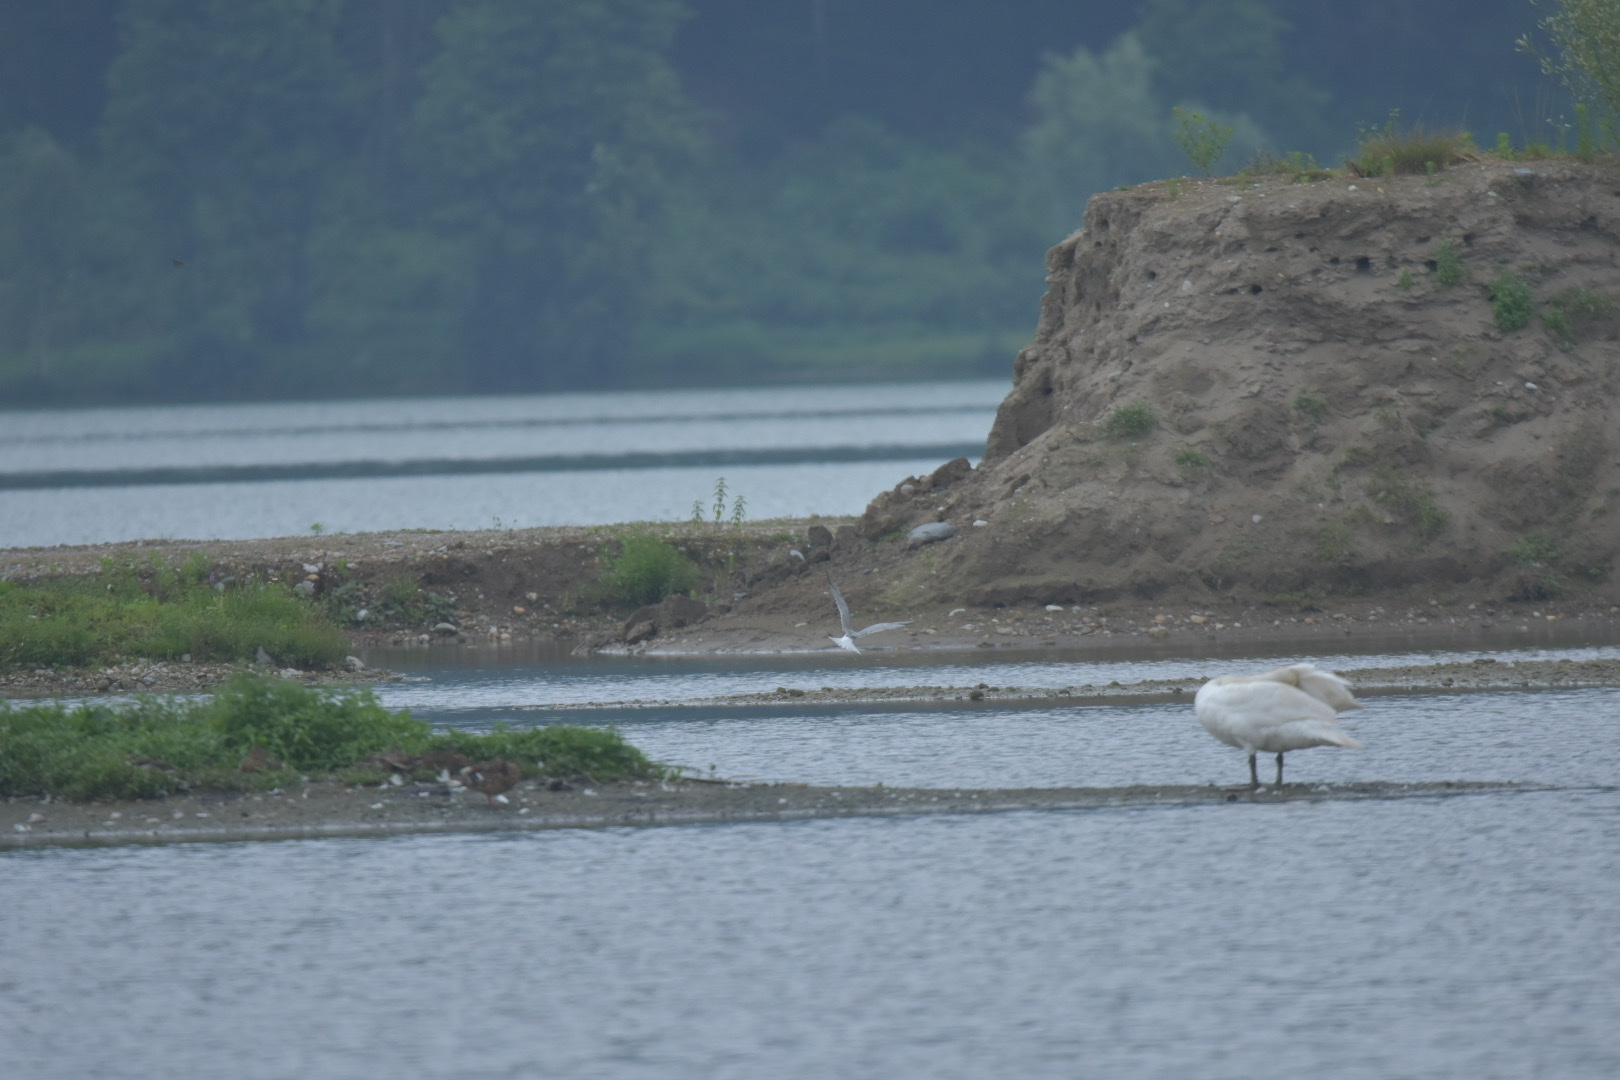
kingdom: Animalia
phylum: Chordata
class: Aves
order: Charadriiformes
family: Laridae
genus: Sterna
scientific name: Sterna hirundo
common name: Common tern
